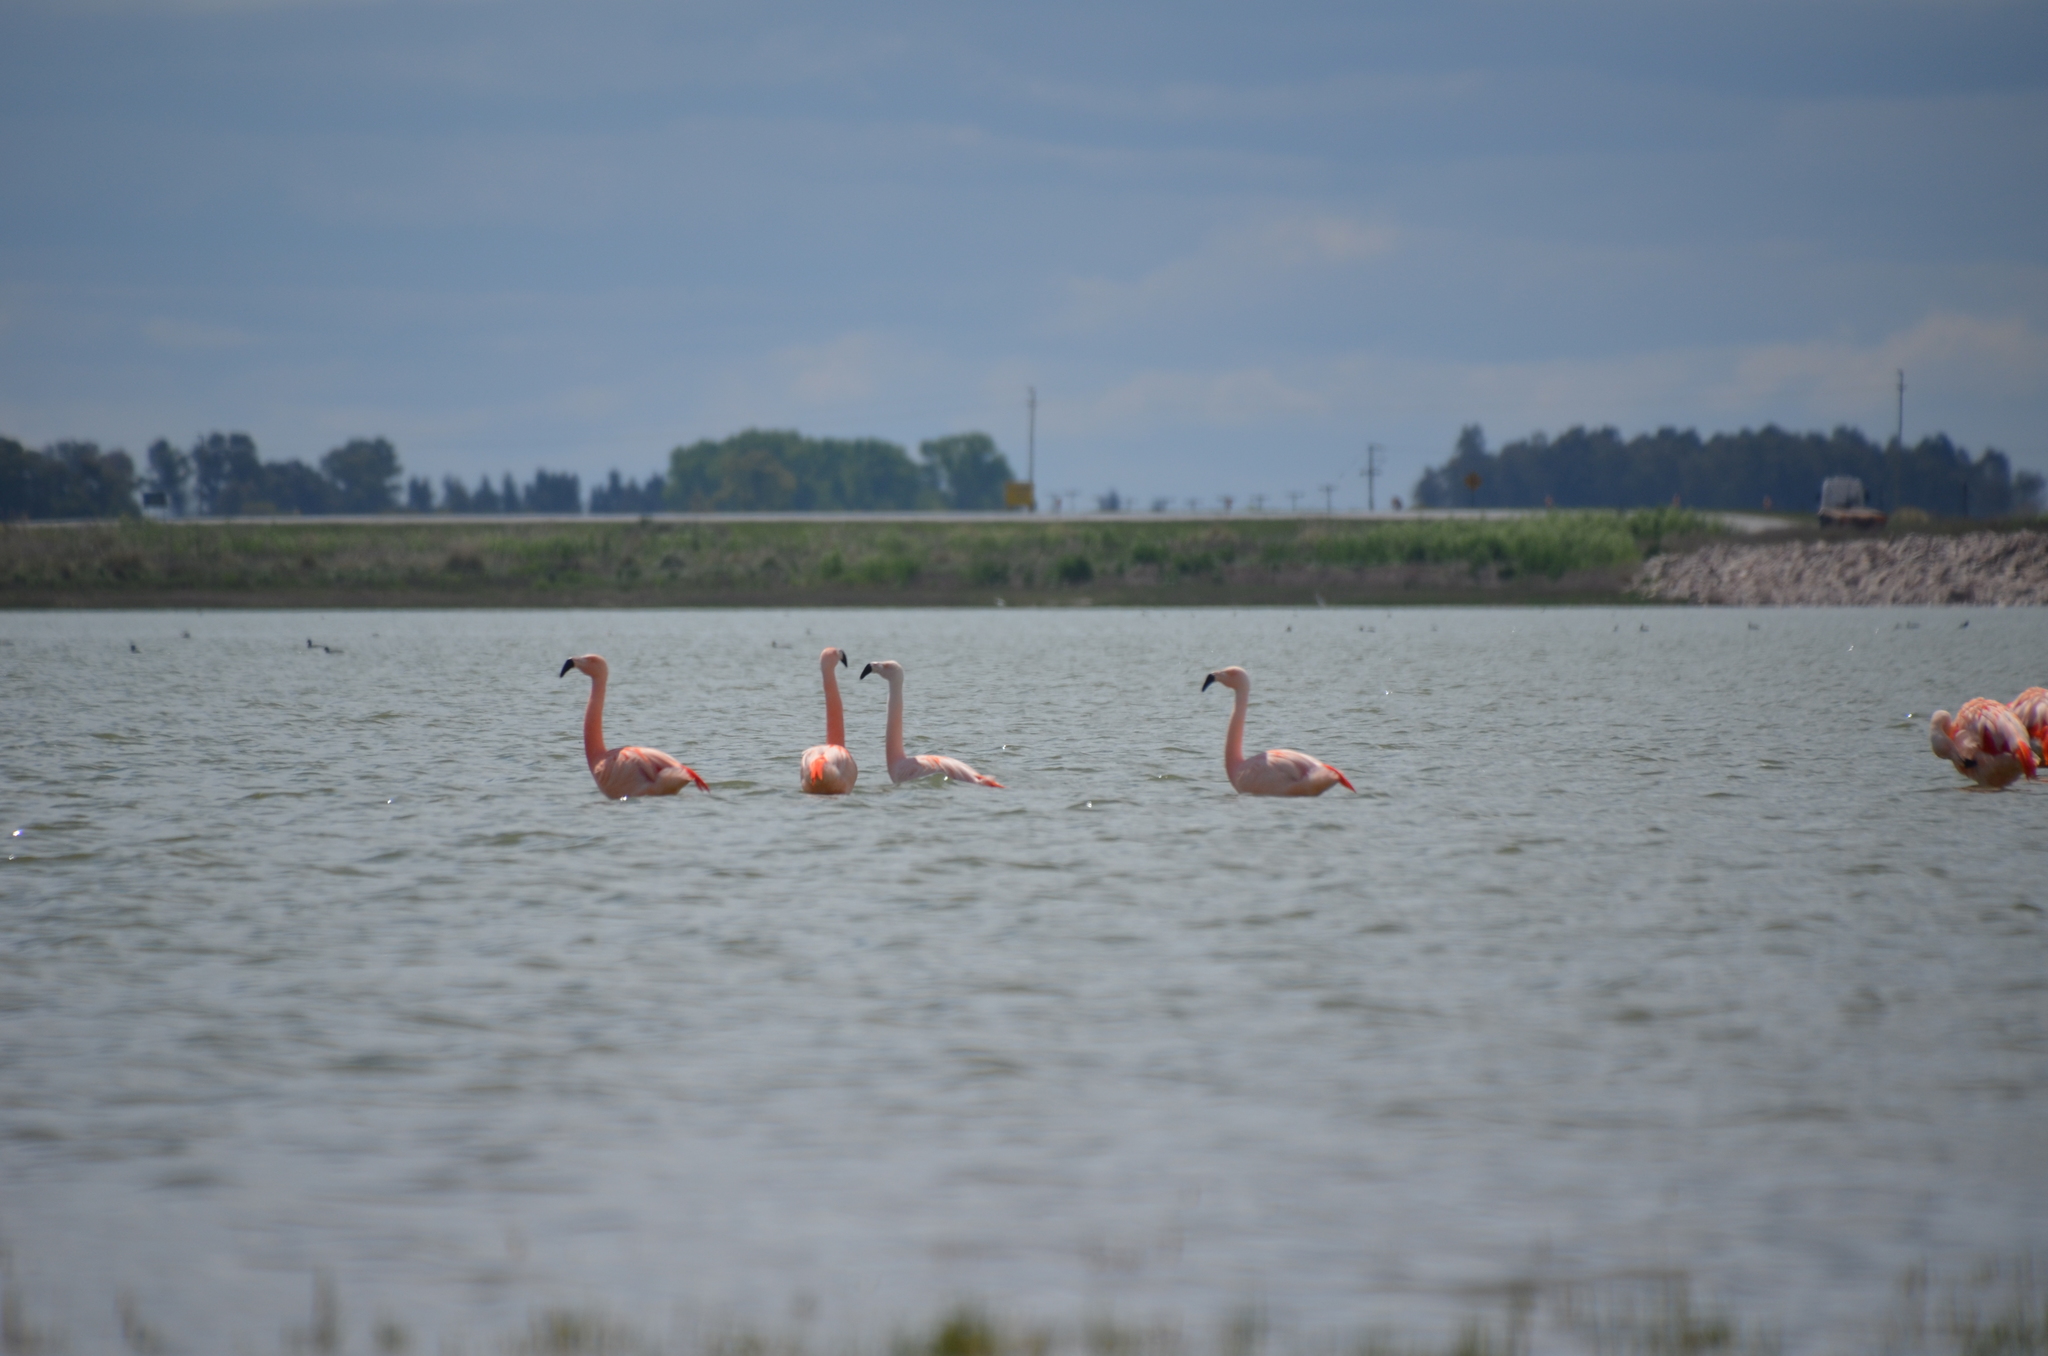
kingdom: Animalia
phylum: Chordata
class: Aves
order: Phoenicopteriformes
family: Phoenicopteridae
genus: Phoenicopterus
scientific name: Phoenicopterus chilensis
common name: Chilean flamingo
